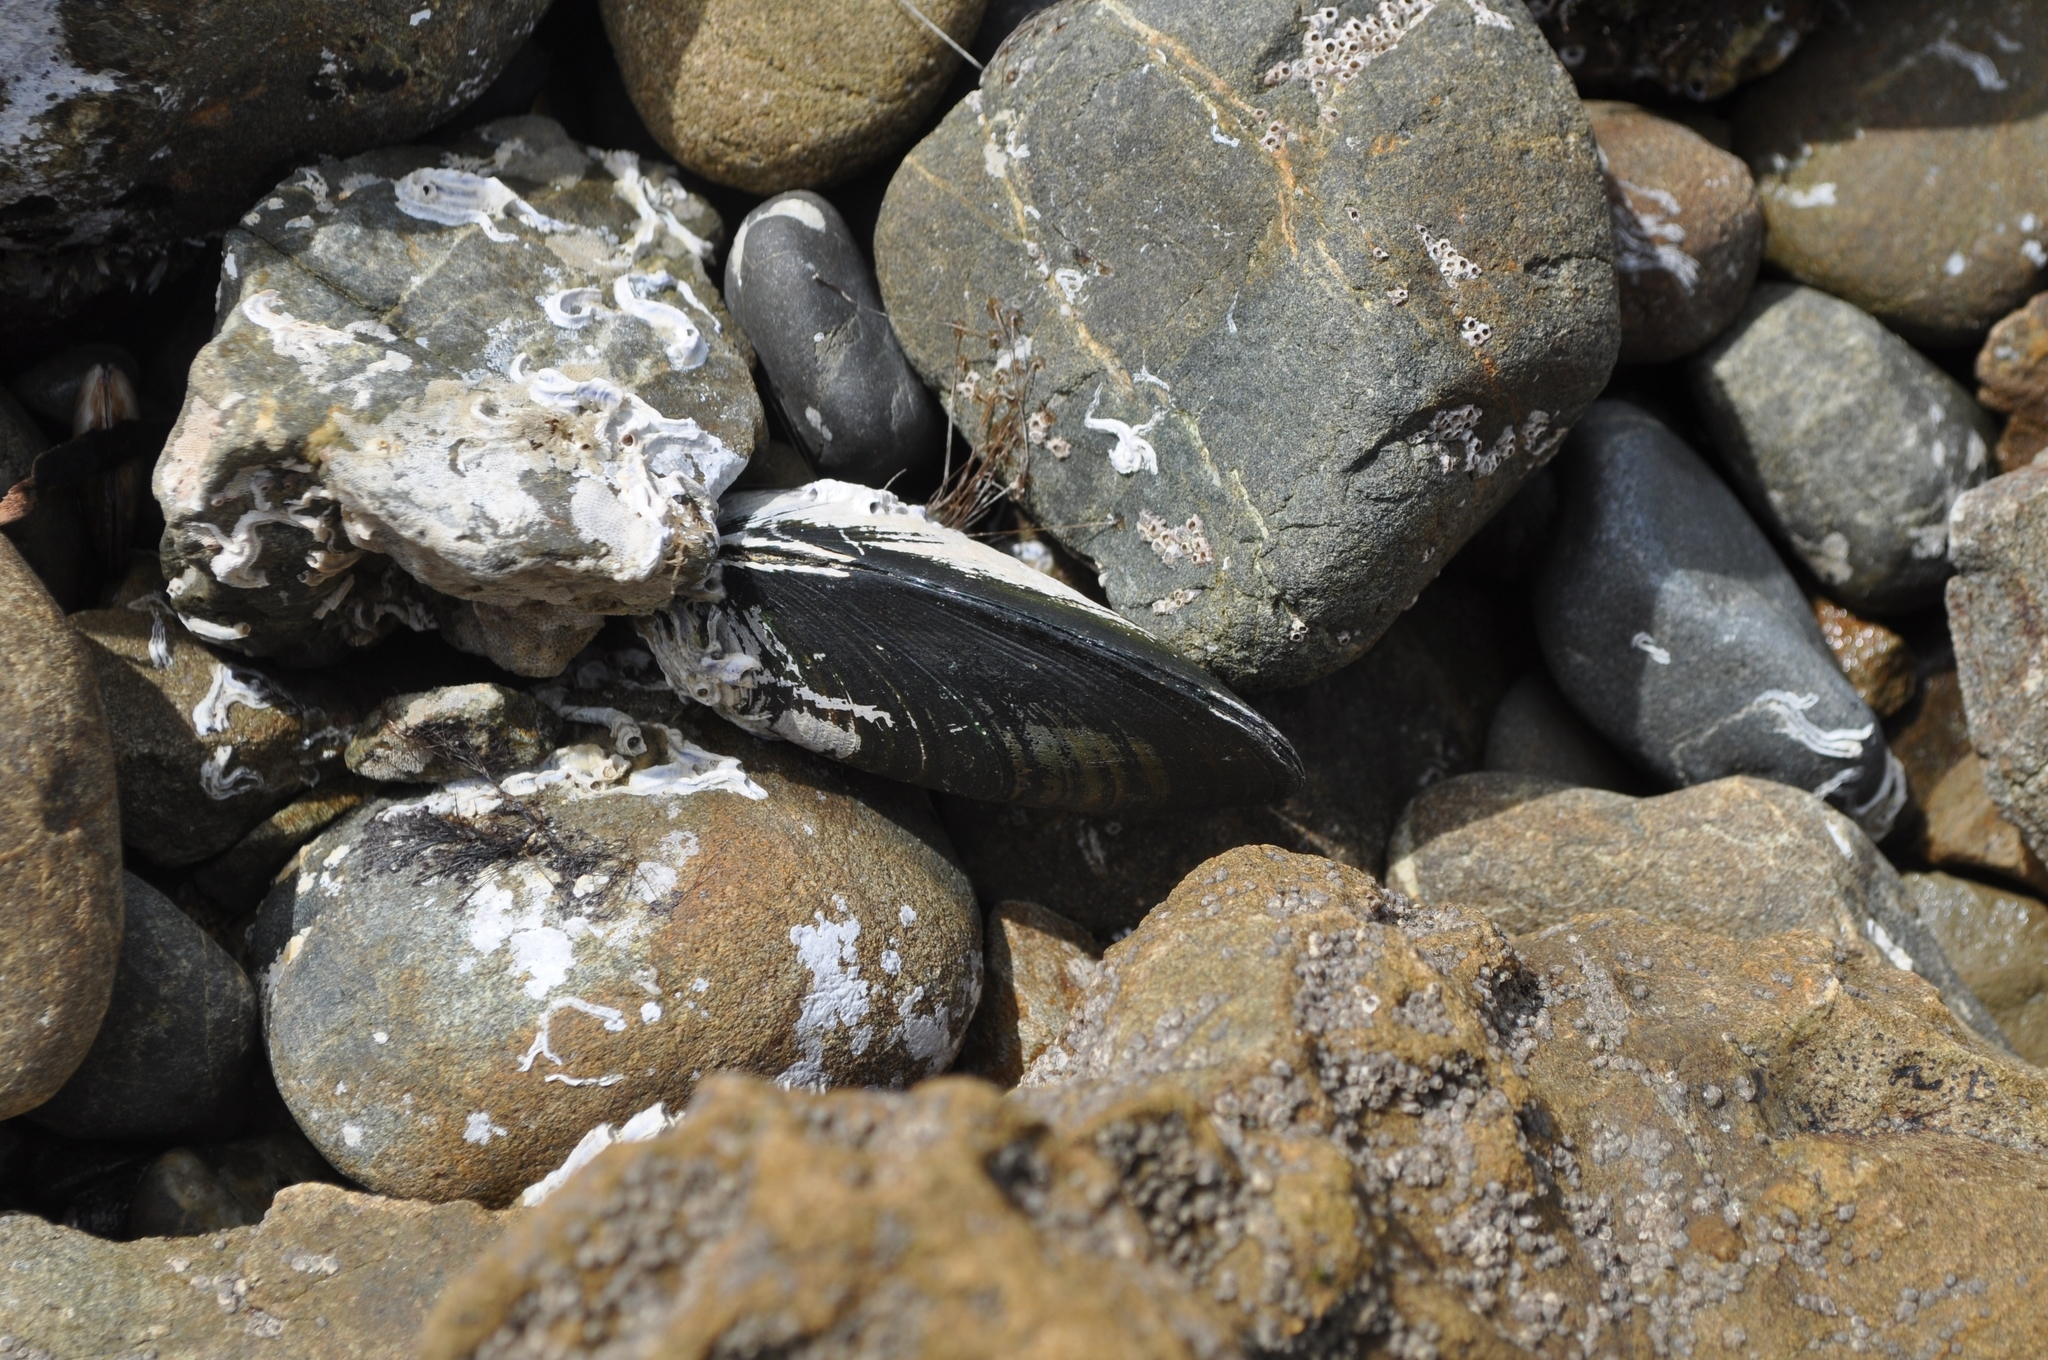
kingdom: Animalia
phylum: Mollusca
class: Bivalvia
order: Mytilida
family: Mytilidae
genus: Perna
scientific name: Perna canaliculus
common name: New zealand greenshelltm
